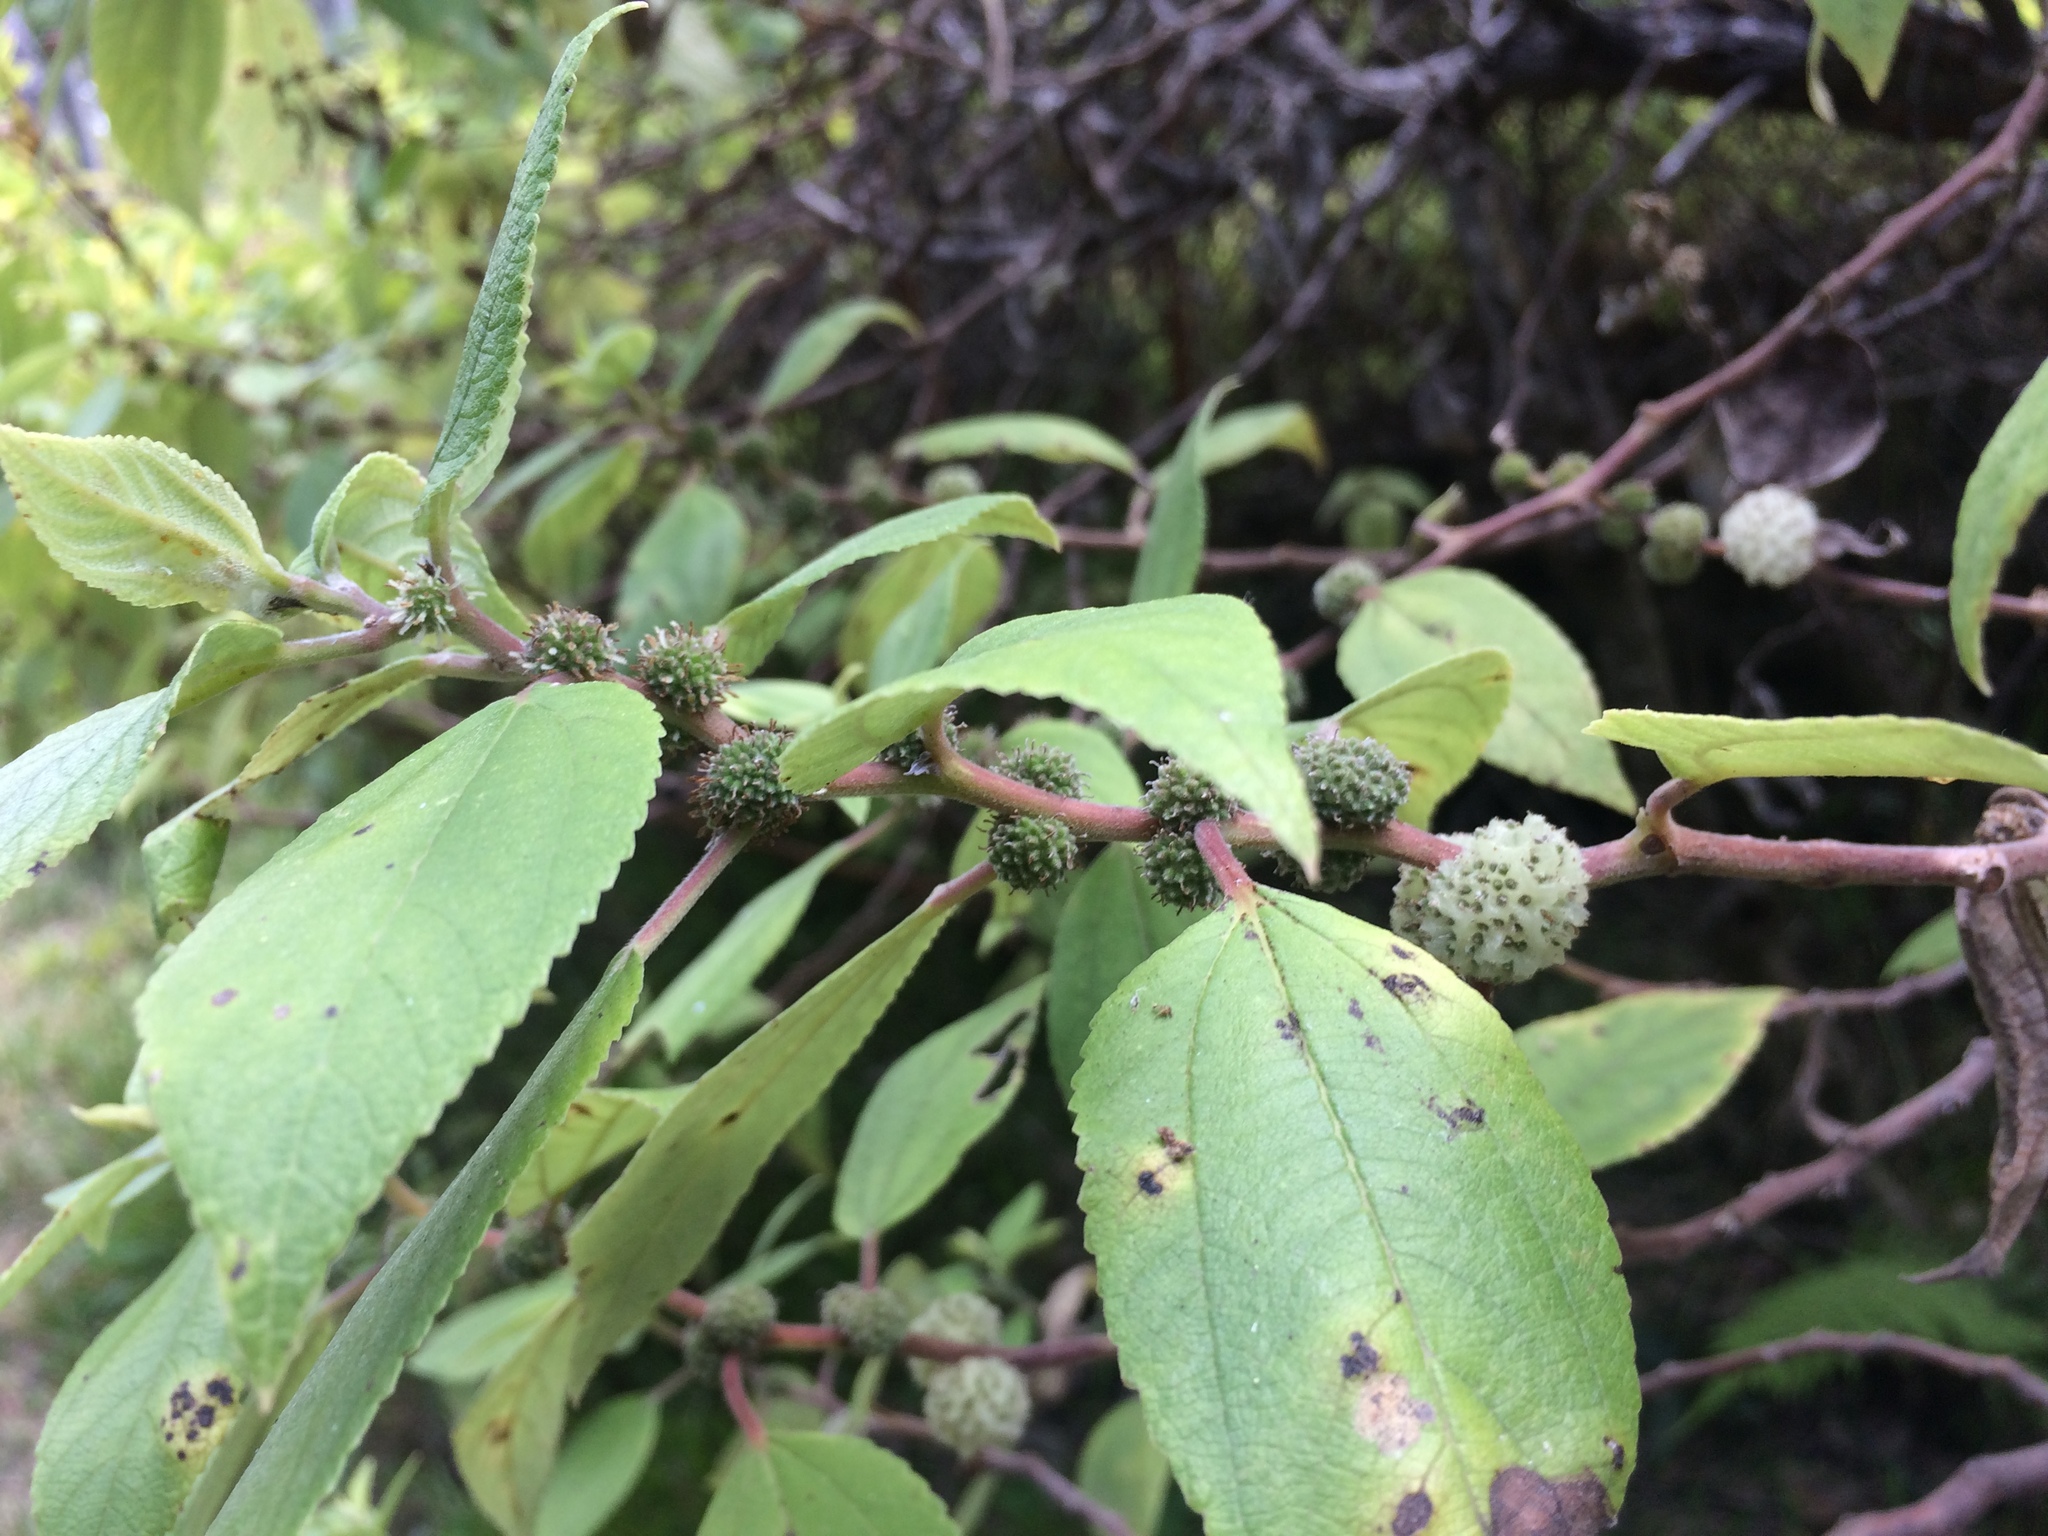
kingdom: Plantae
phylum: Tracheophyta
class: Magnoliopsida
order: Rosales
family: Urticaceae
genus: Pipturus
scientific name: Pipturus albidus
